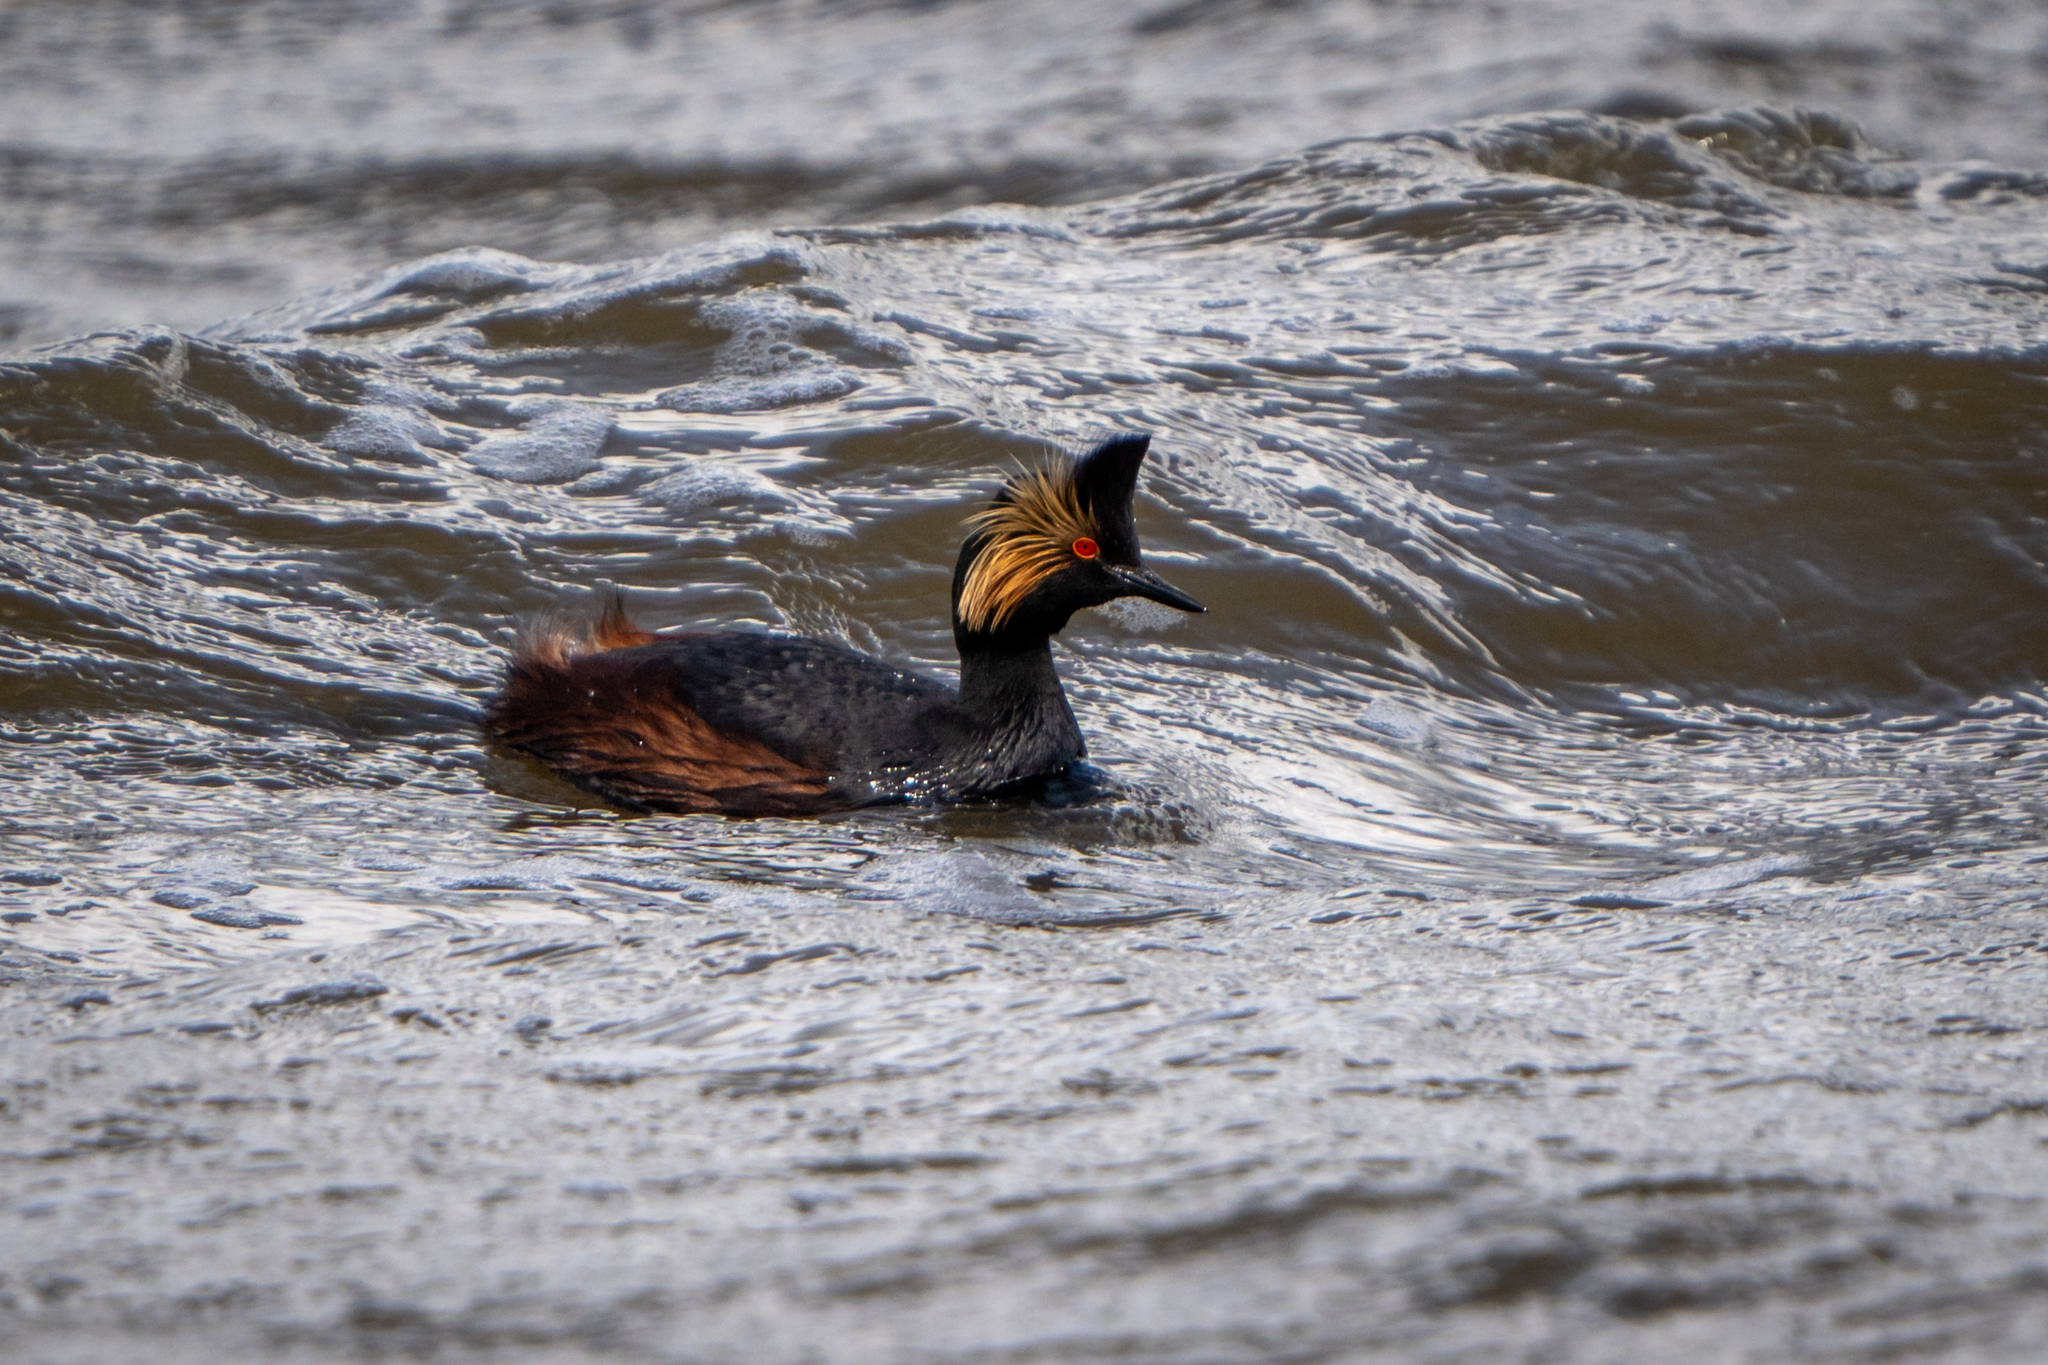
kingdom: Animalia
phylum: Chordata
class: Aves
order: Podicipediformes
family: Podicipedidae
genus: Podiceps
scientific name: Podiceps nigricollis
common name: Black-necked grebe
